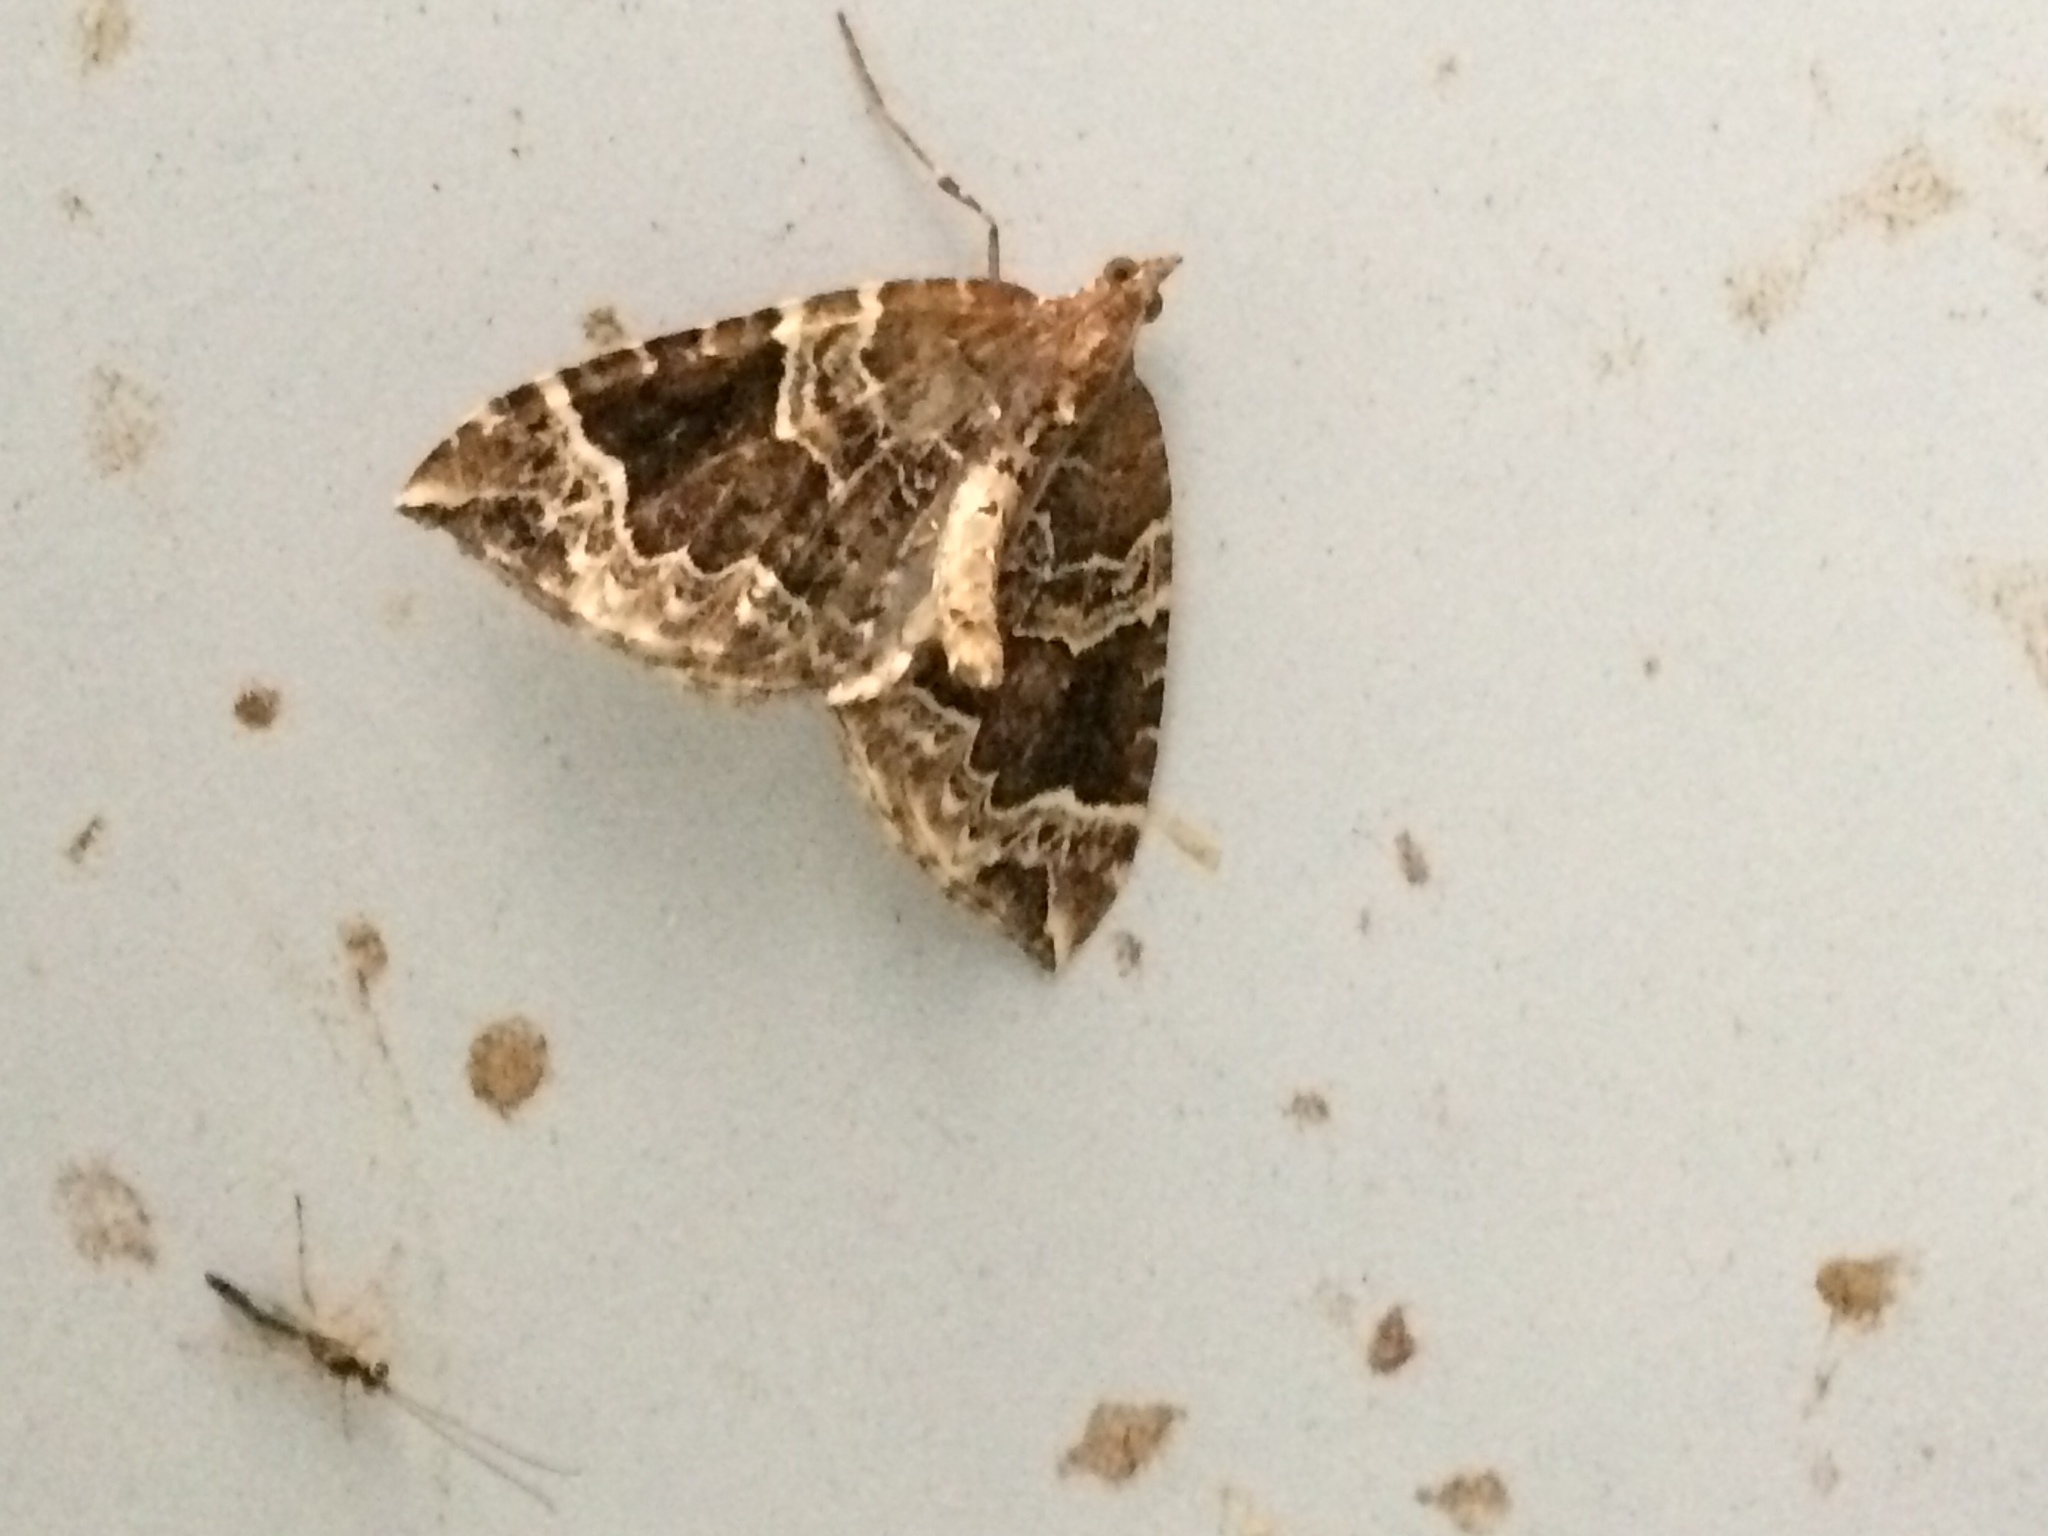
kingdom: Animalia
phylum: Arthropoda
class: Insecta
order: Lepidoptera
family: Geometridae
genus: Eulithis
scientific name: Eulithis prunata
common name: Phoenix
